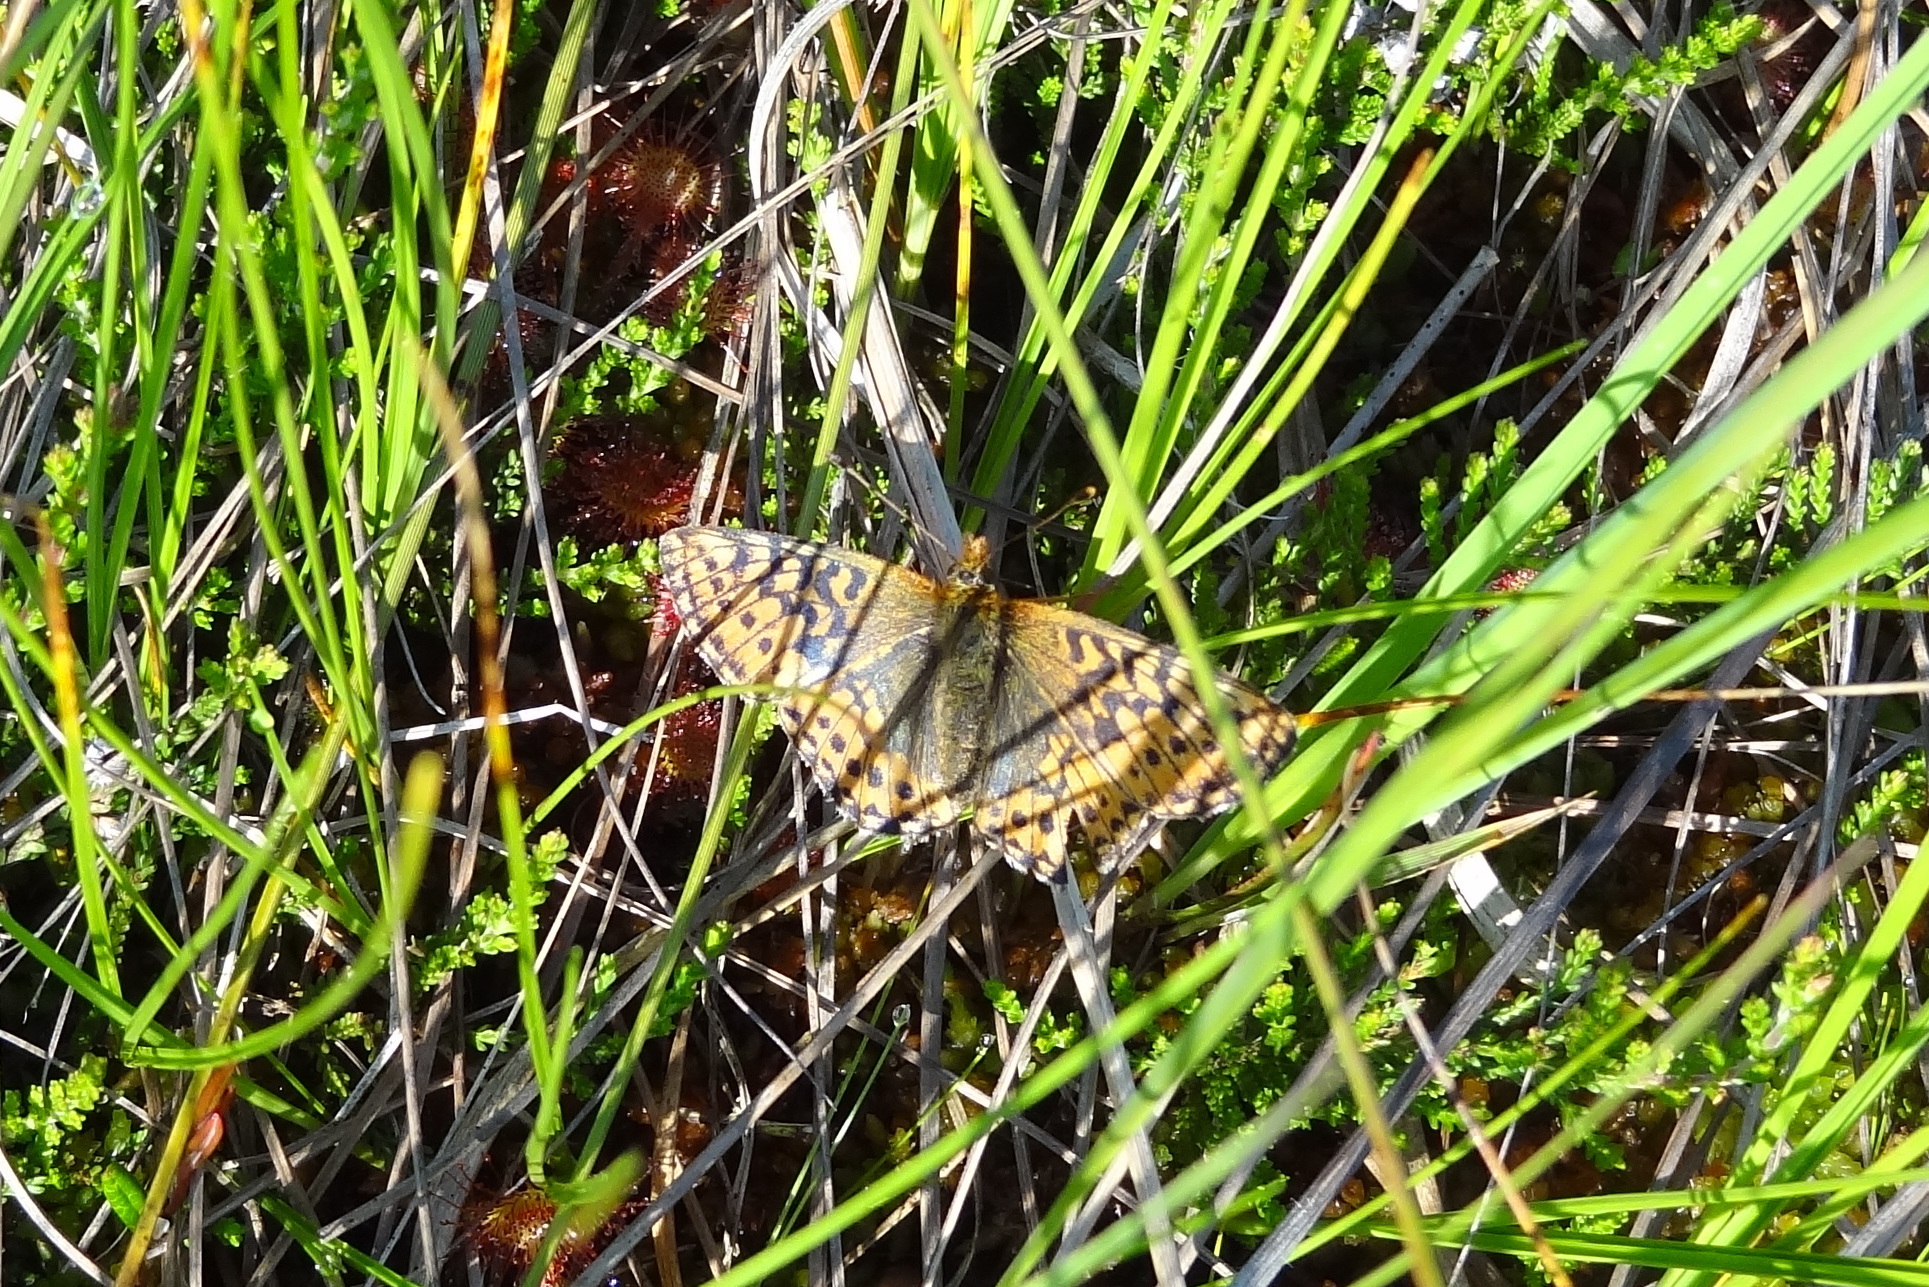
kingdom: Animalia
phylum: Arthropoda
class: Insecta
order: Lepidoptera
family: Nymphalidae
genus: Boloria
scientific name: Boloria aquilonaris
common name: Cranberry fritillary
